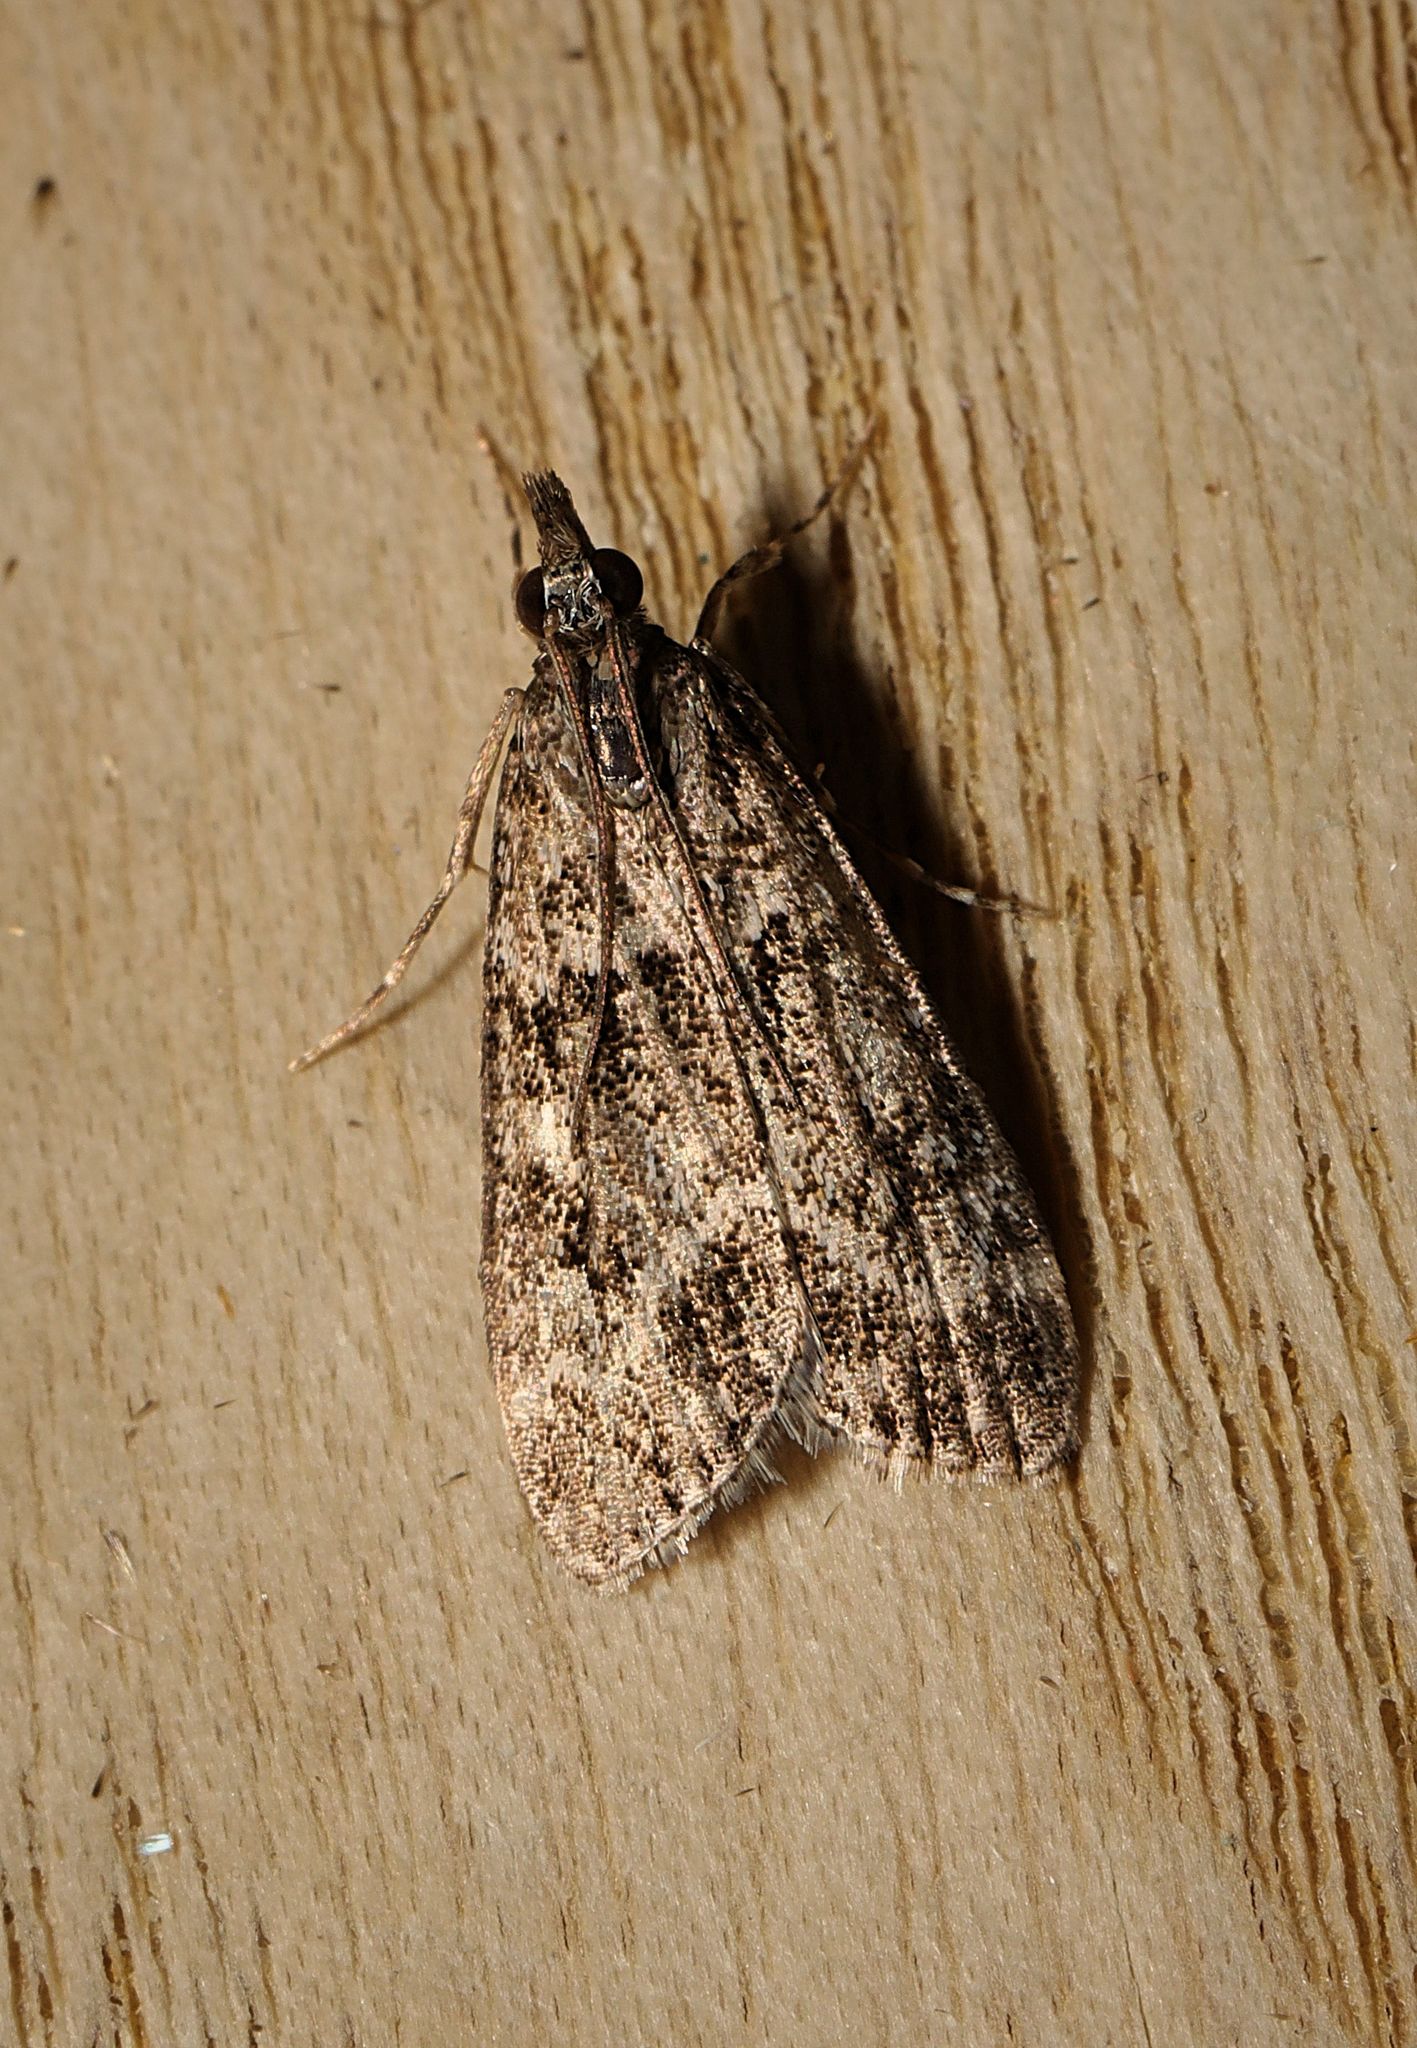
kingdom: Animalia
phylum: Arthropoda
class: Insecta
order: Lepidoptera
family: Crambidae
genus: Eudonia
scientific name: Eudonia mercurella
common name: Small grey
